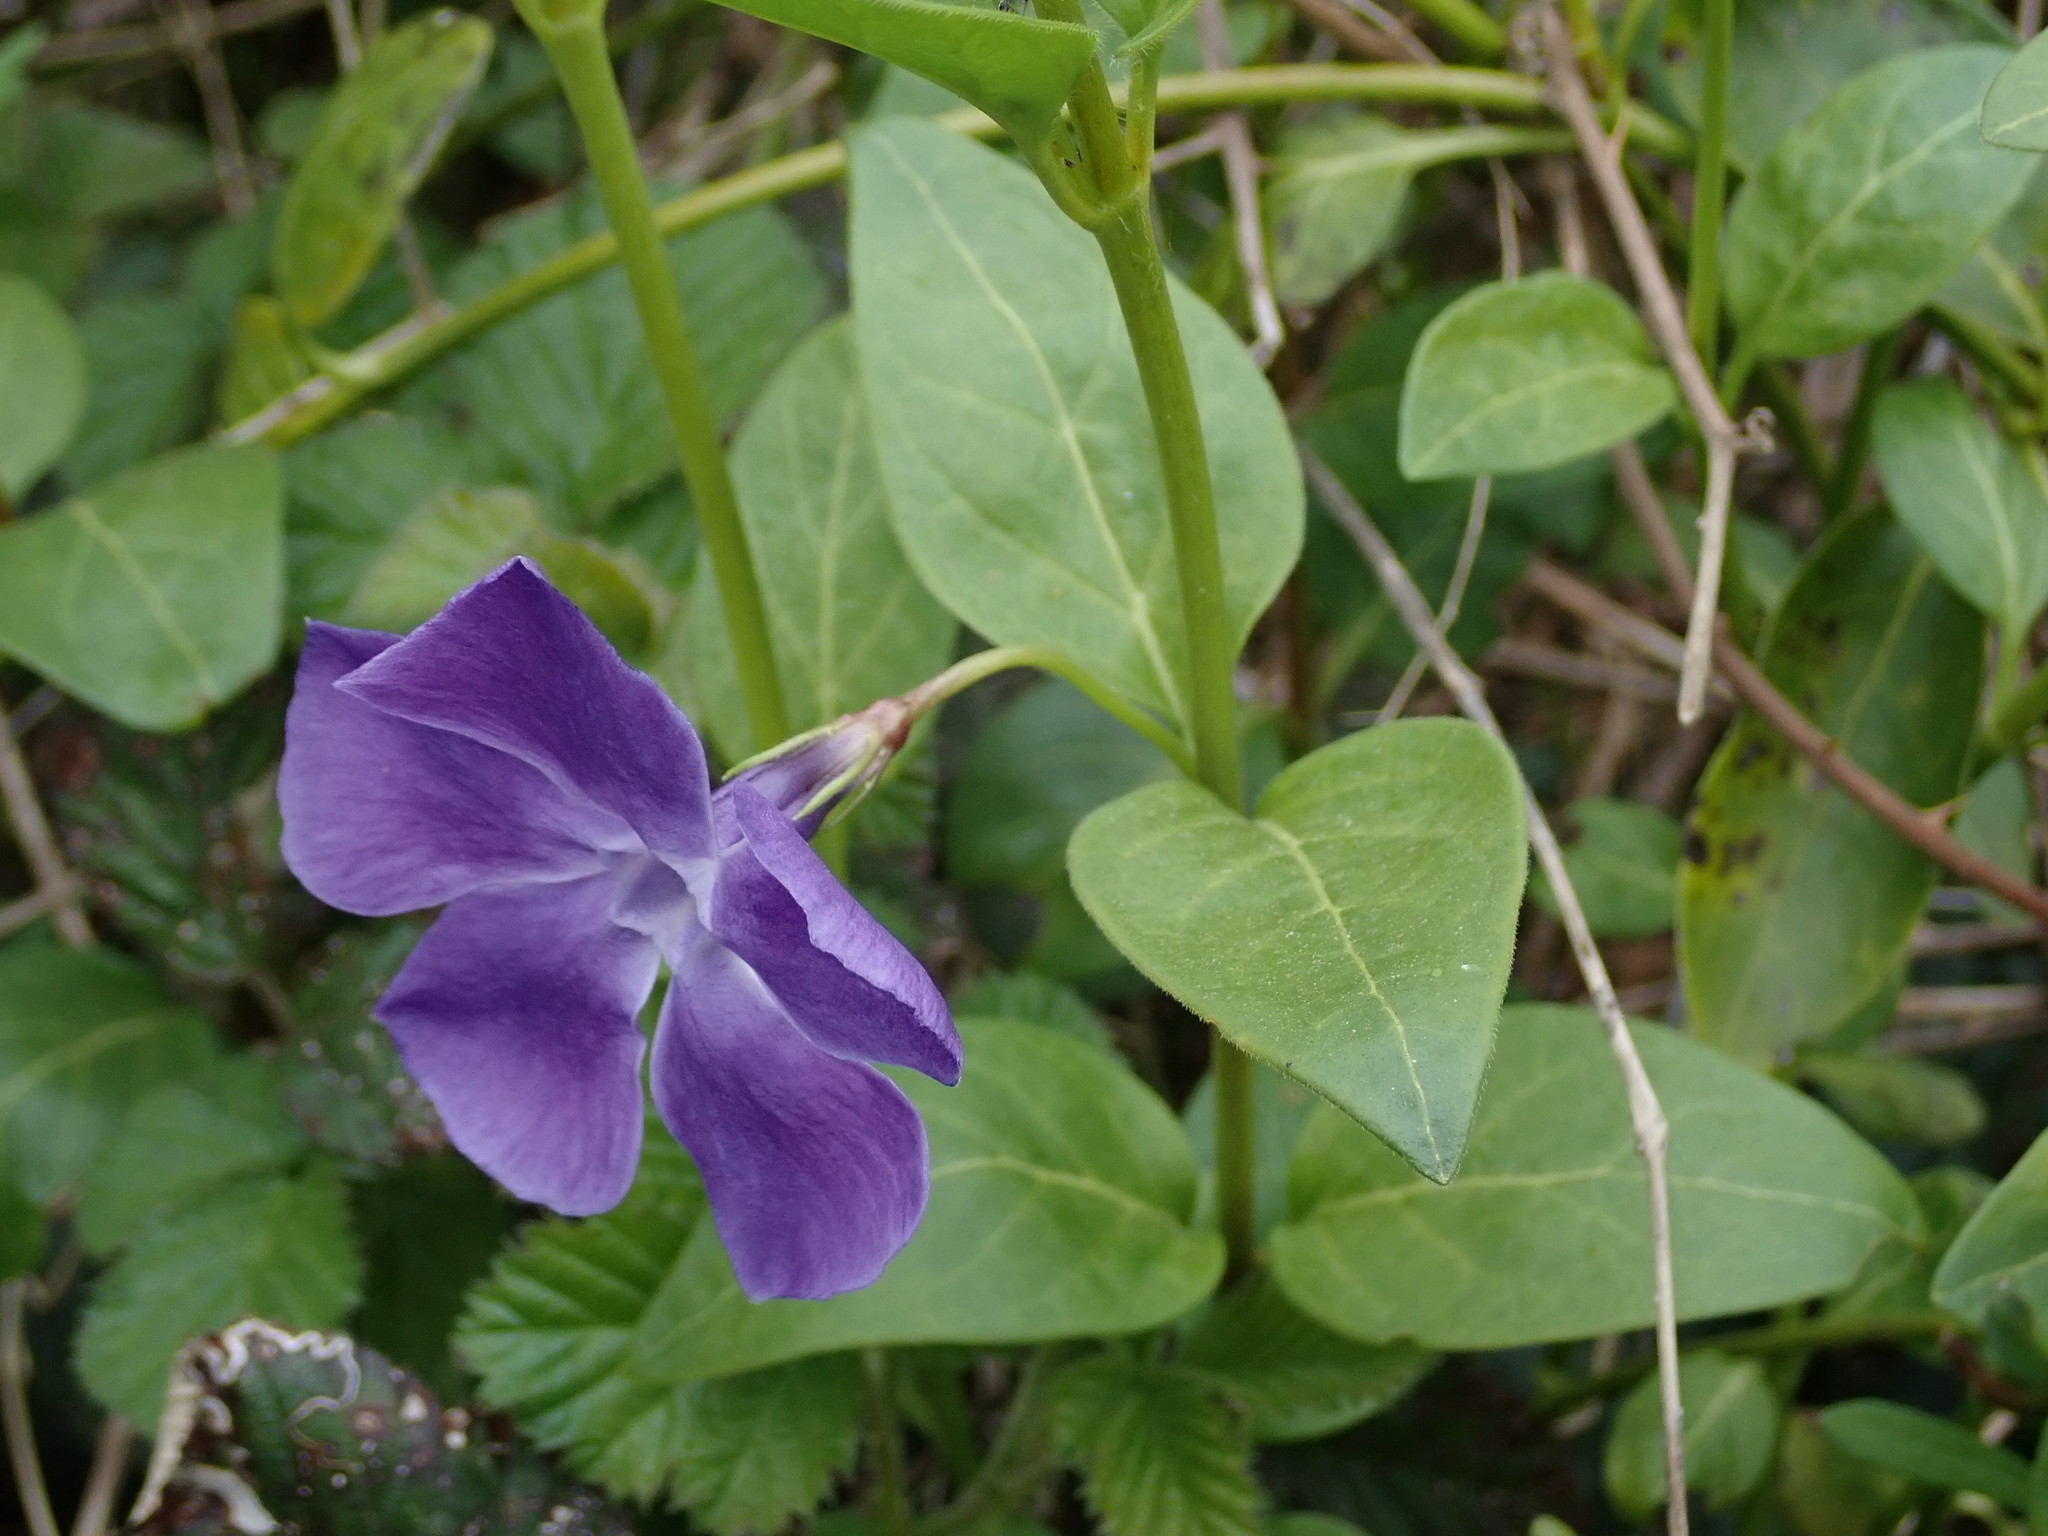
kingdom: Plantae
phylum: Tracheophyta
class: Magnoliopsida
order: Gentianales
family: Apocynaceae
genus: Vinca
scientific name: Vinca major
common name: Greater periwinkle
